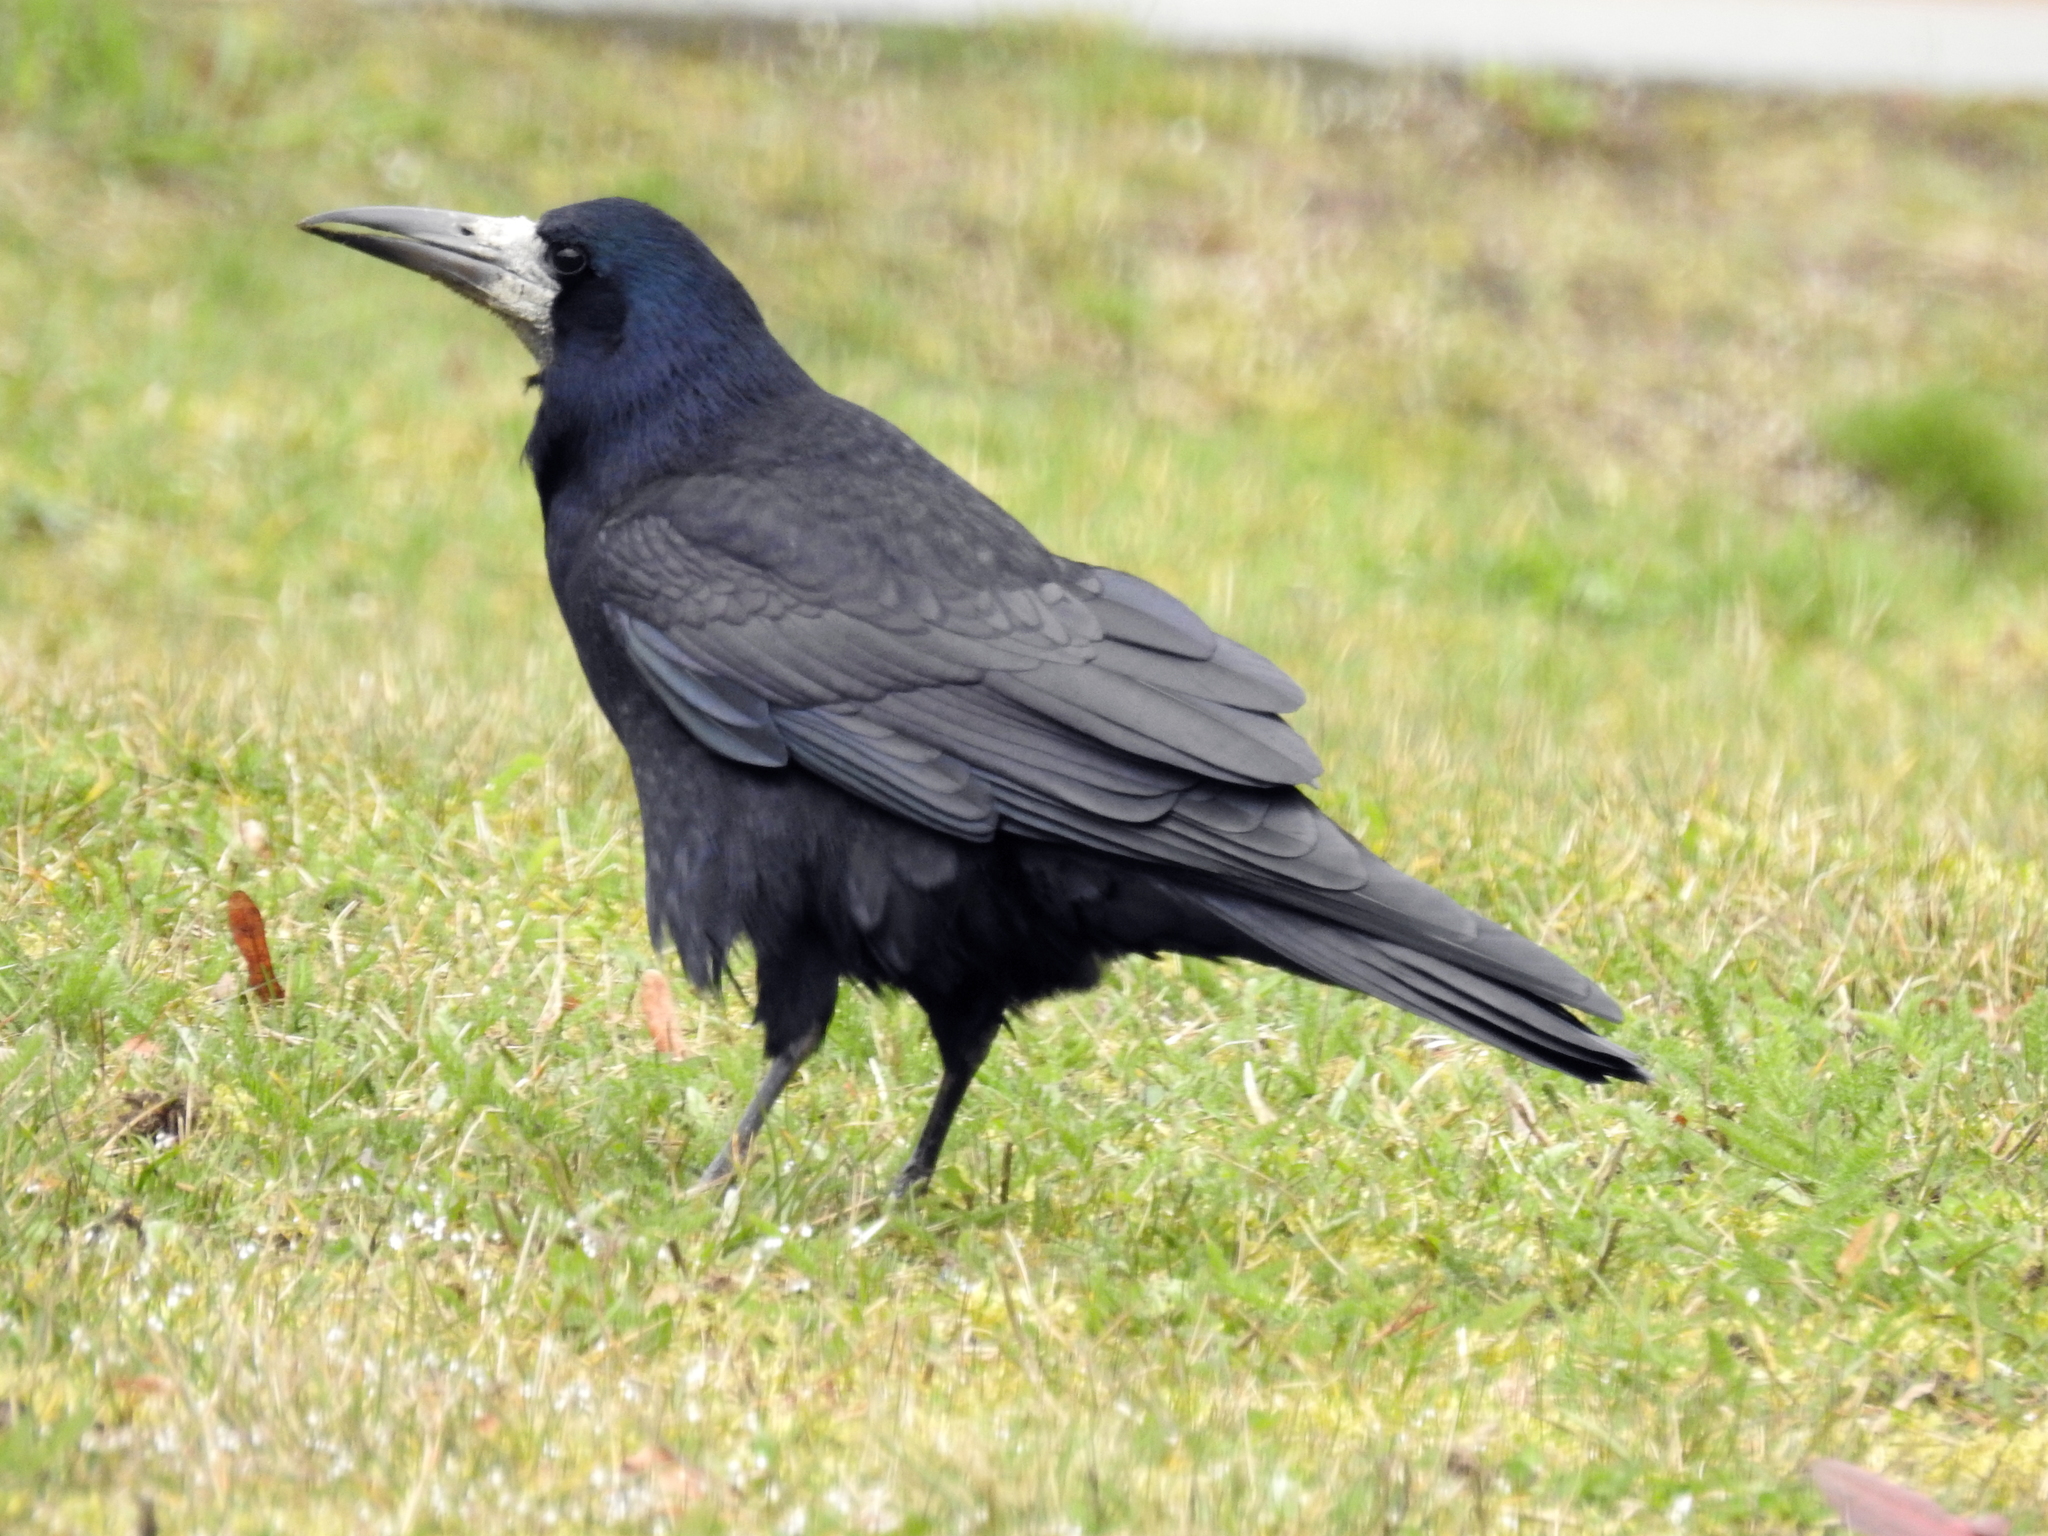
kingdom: Animalia
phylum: Chordata
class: Aves
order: Passeriformes
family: Corvidae
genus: Corvus
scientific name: Corvus frugilegus
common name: Rook
